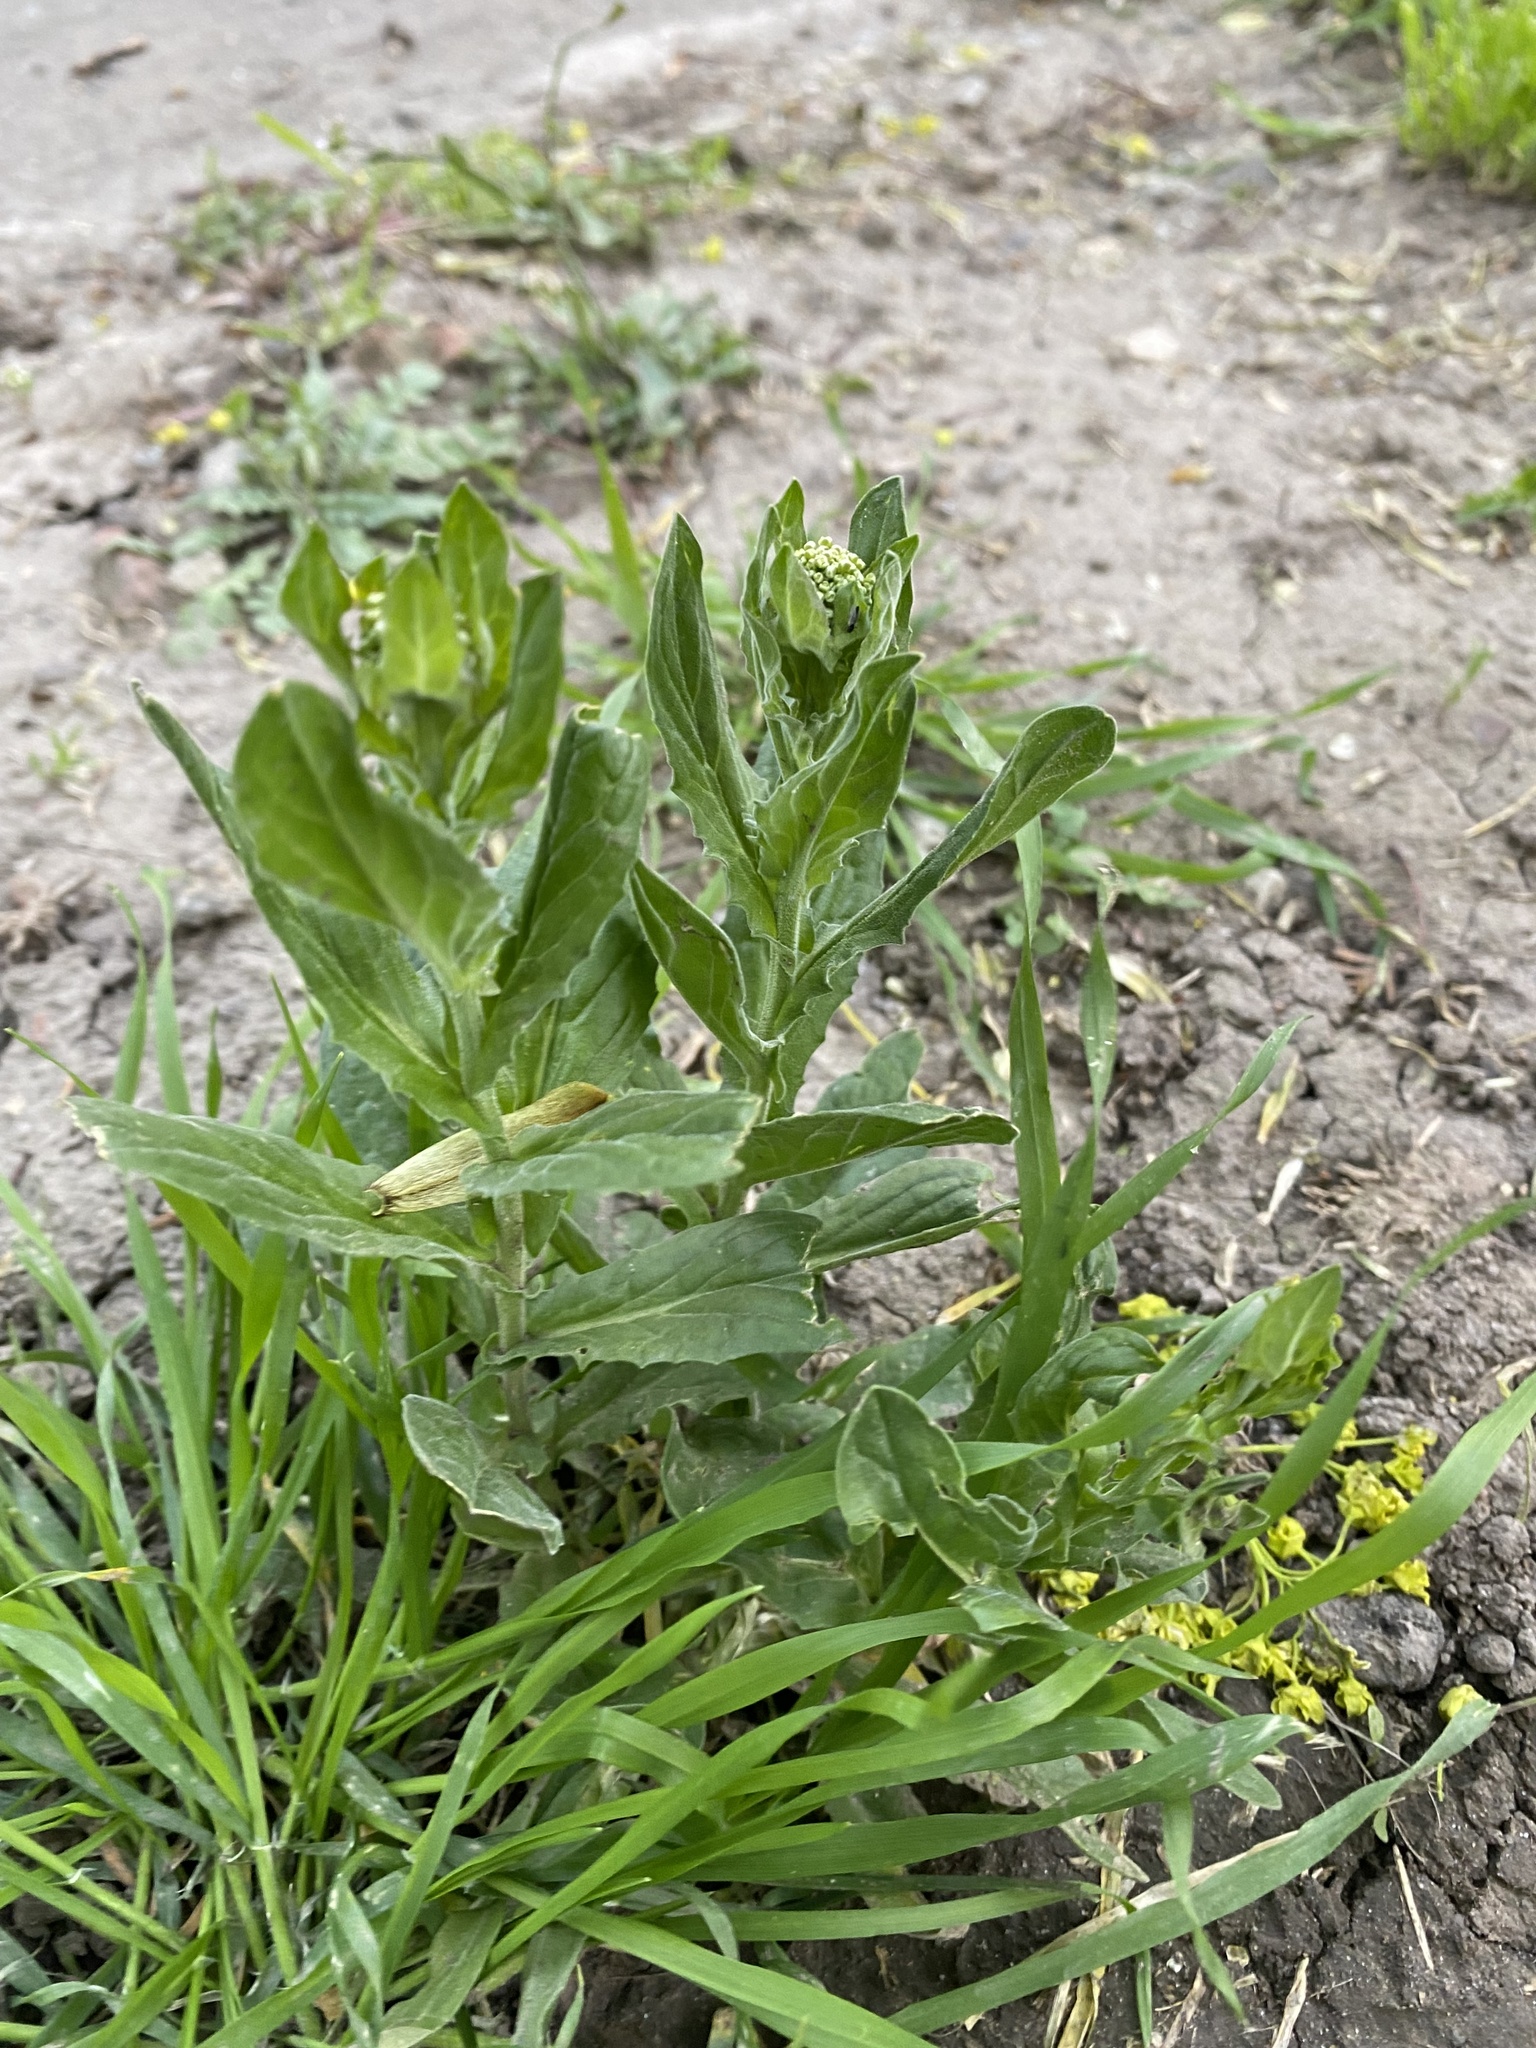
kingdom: Plantae
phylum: Tracheophyta
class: Magnoliopsida
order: Brassicales
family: Brassicaceae
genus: Lepidium
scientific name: Lepidium draba
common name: Hoary cress
